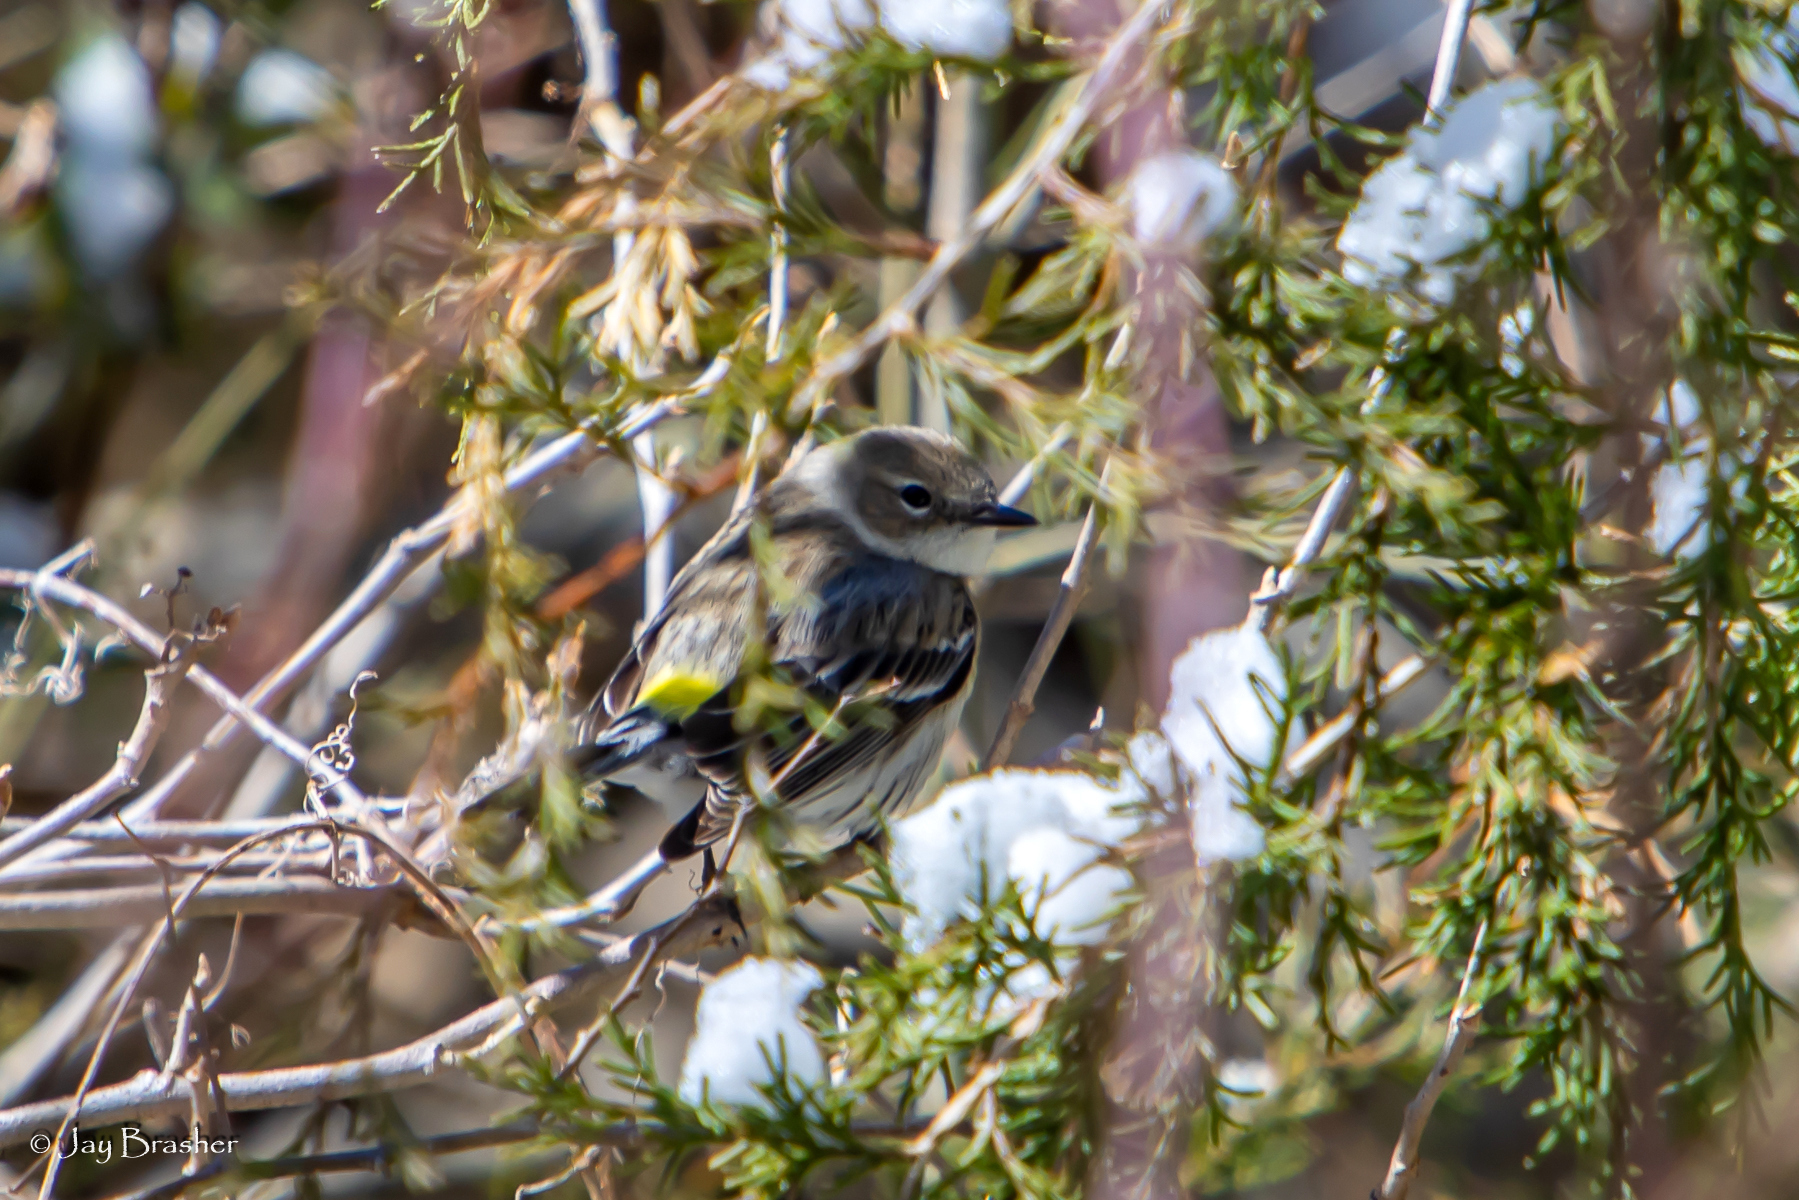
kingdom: Animalia
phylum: Chordata
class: Aves
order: Passeriformes
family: Parulidae
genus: Setophaga
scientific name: Setophaga coronata
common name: Myrtle warbler
